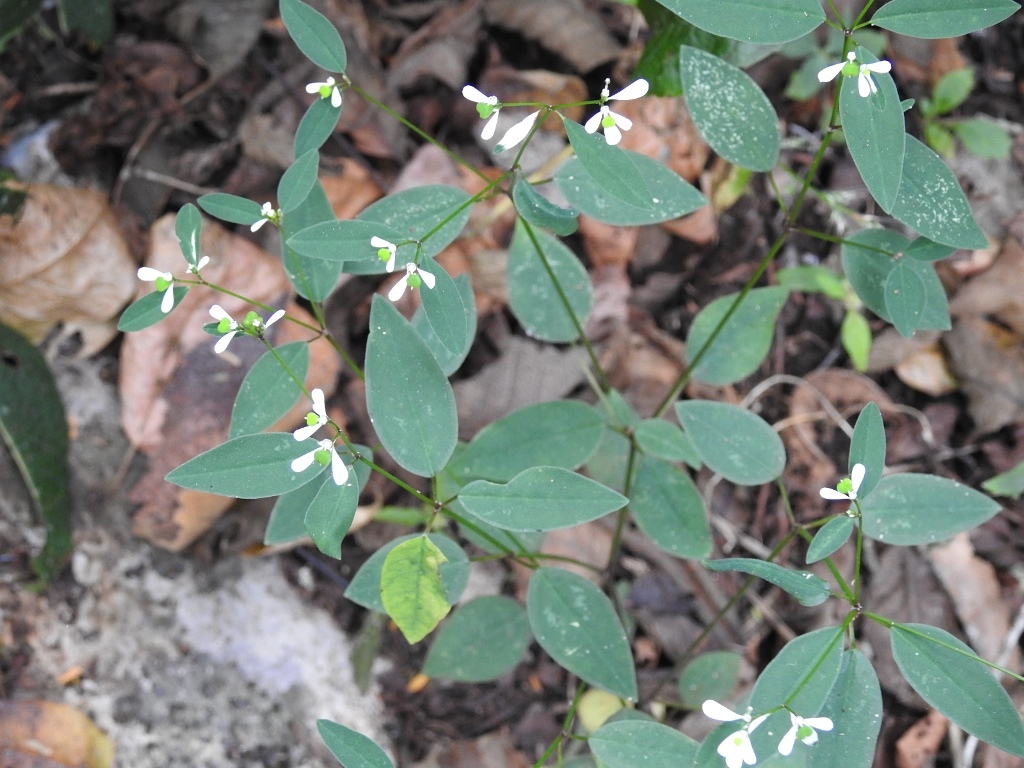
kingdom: Plantae
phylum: Tracheophyta
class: Magnoliopsida
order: Malpighiales
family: Euphorbiaceae
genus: Euphorbia
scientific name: Euphorbia ariensis
